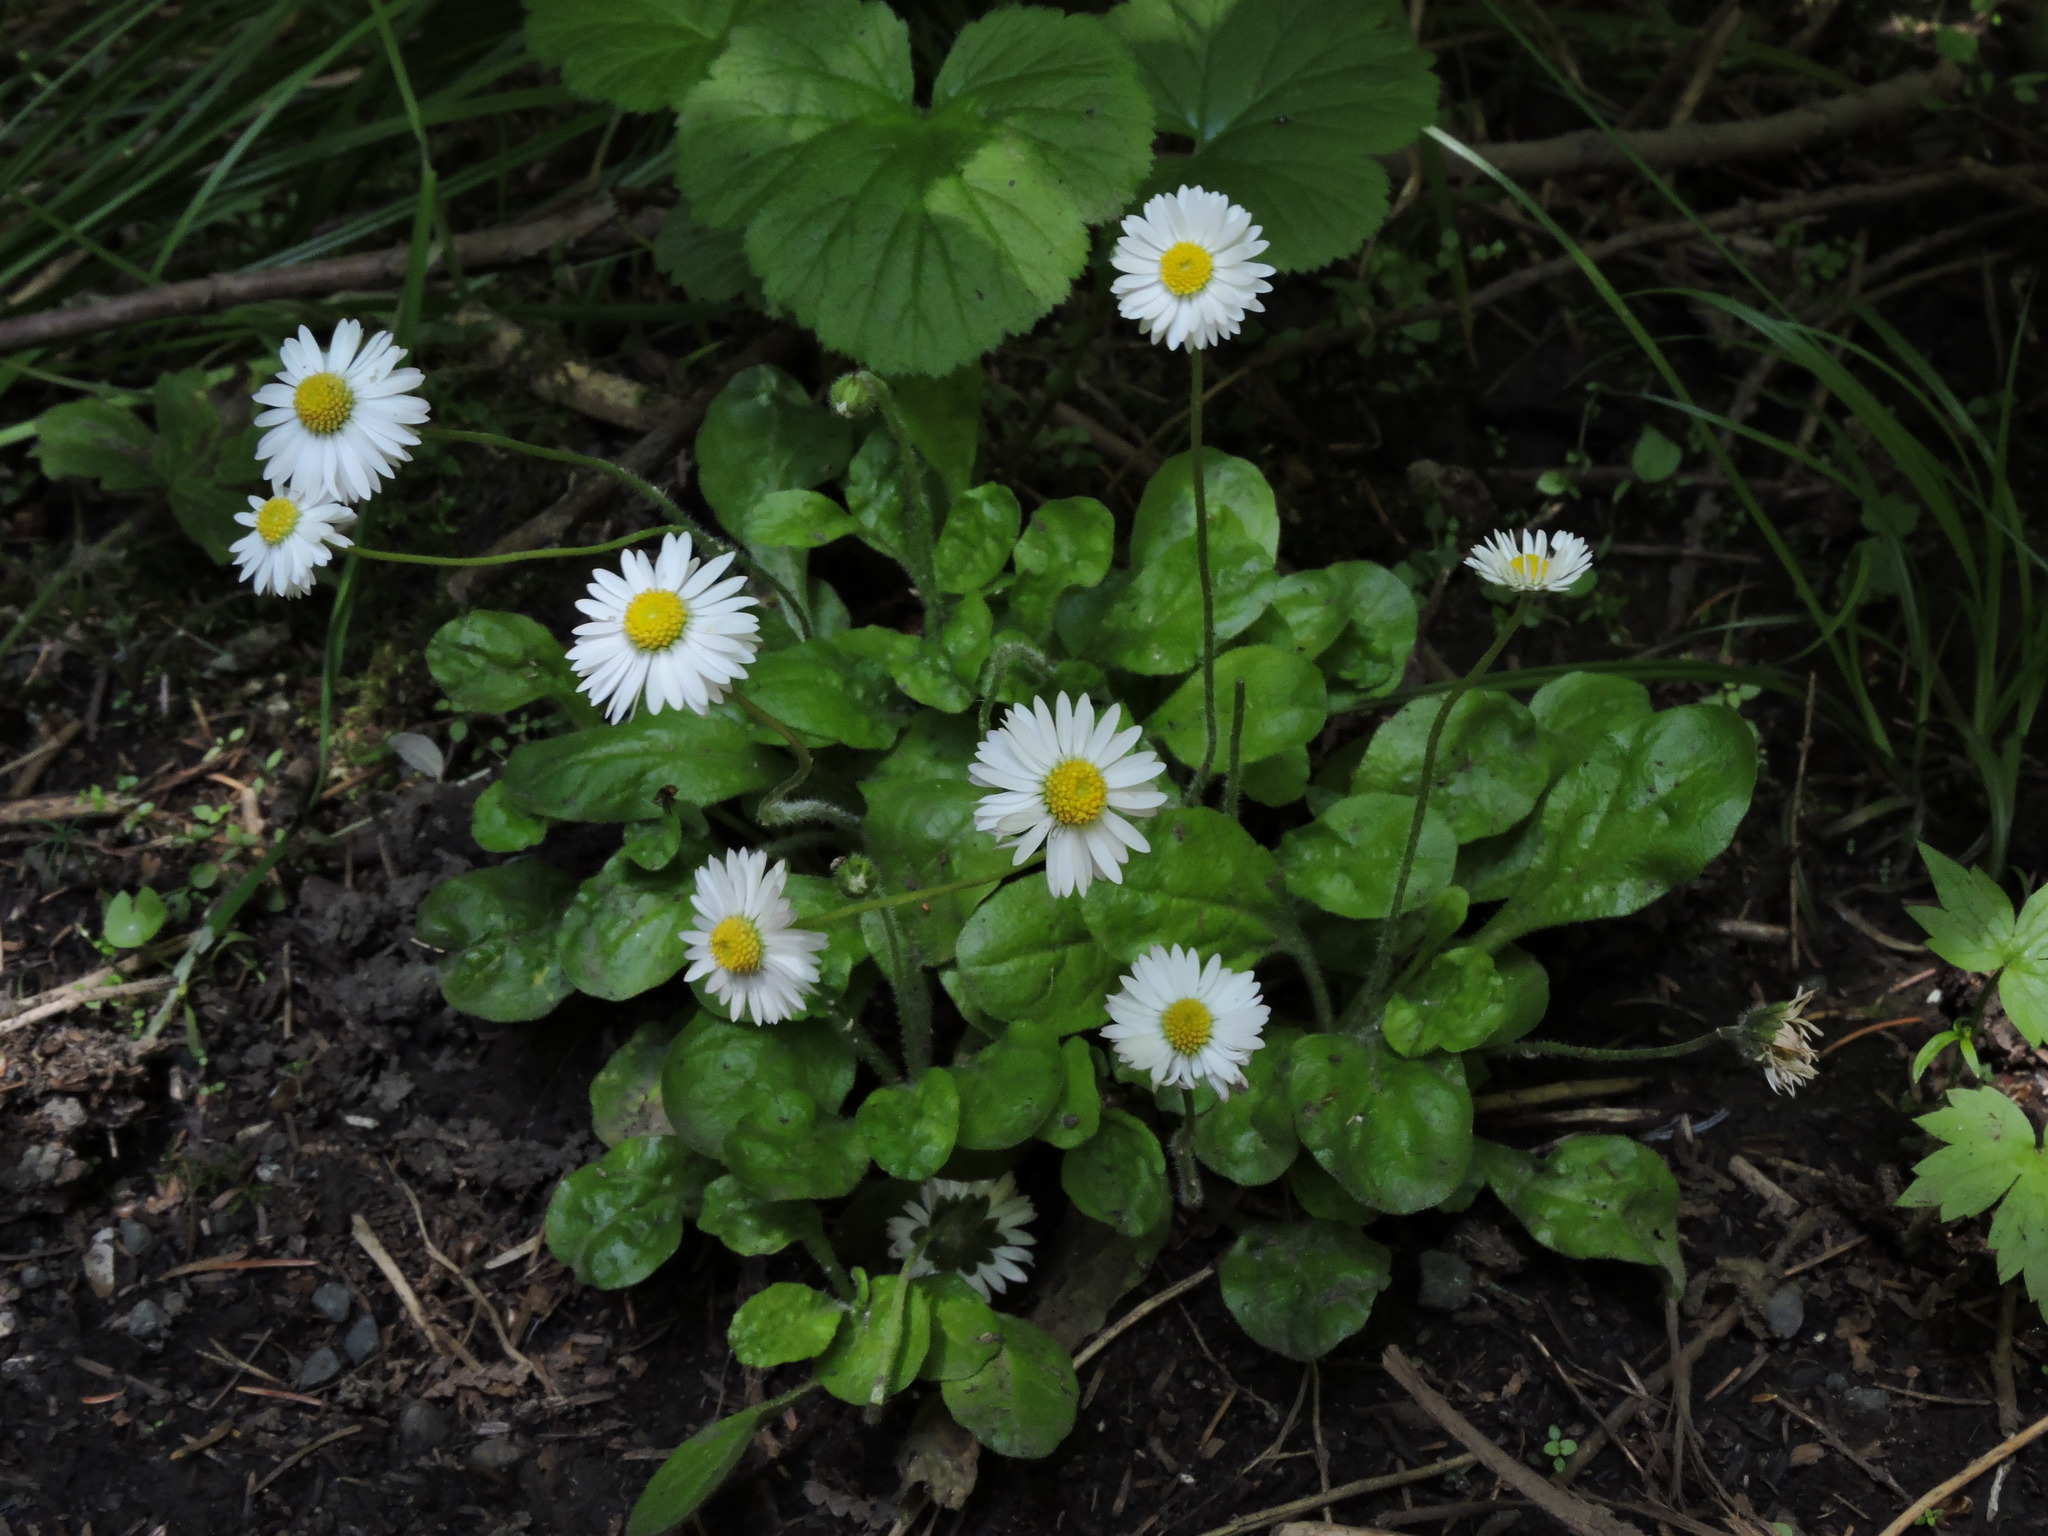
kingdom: Plantae
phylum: Tracheophyta
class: Magnoliopsida
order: Asterales
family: Asteraceae
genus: Bellis
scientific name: Bellis perennis
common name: Lawndaisy
